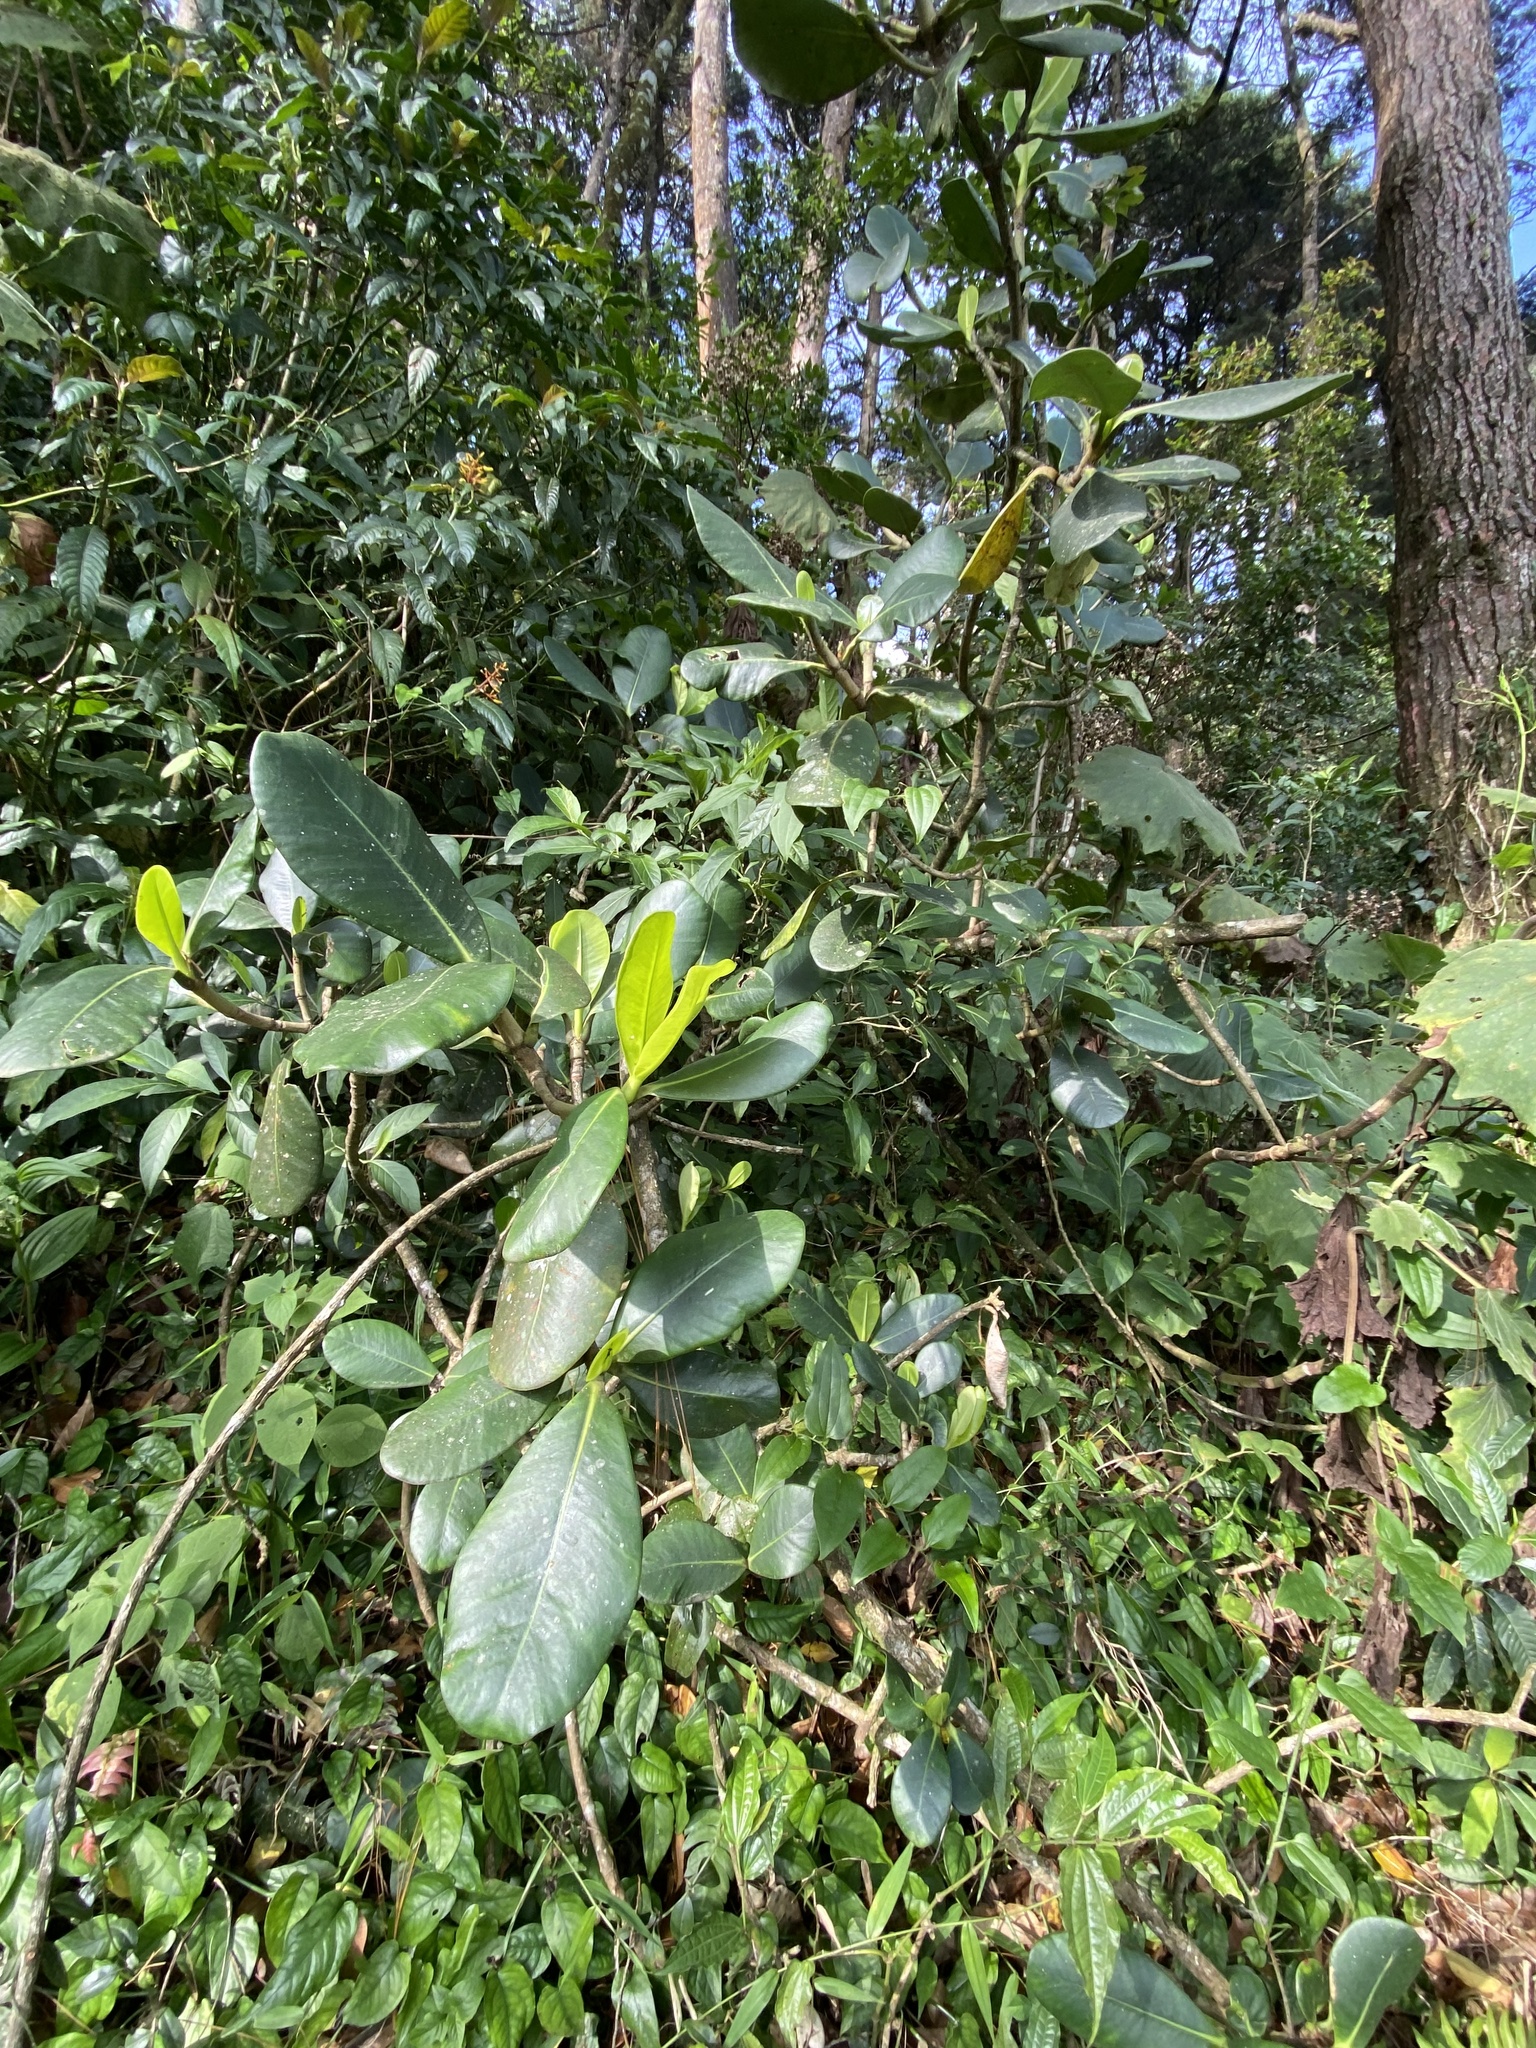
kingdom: Plantae
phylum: Tracheophyta
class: Magnoliopsida
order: Malpighiales
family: Clusiaceae
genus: Clusia
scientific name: Clusia rosea
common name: Scotch attorney
